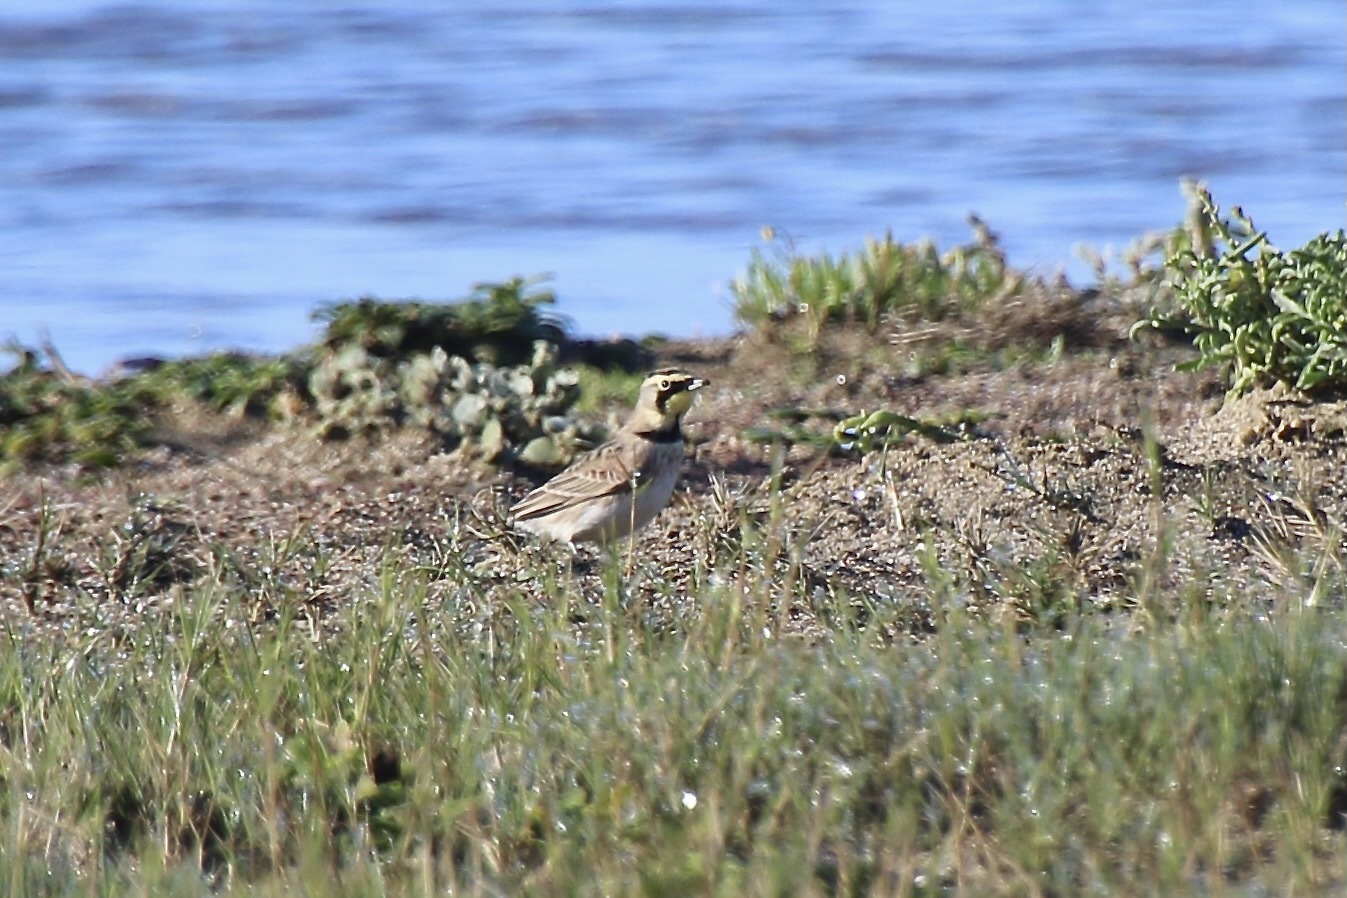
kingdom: Animalia
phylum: Chordata
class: Aves
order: Passeriformes
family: Alaudidae
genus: Eremophila
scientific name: Eremophila alpestris
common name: Horned lark
